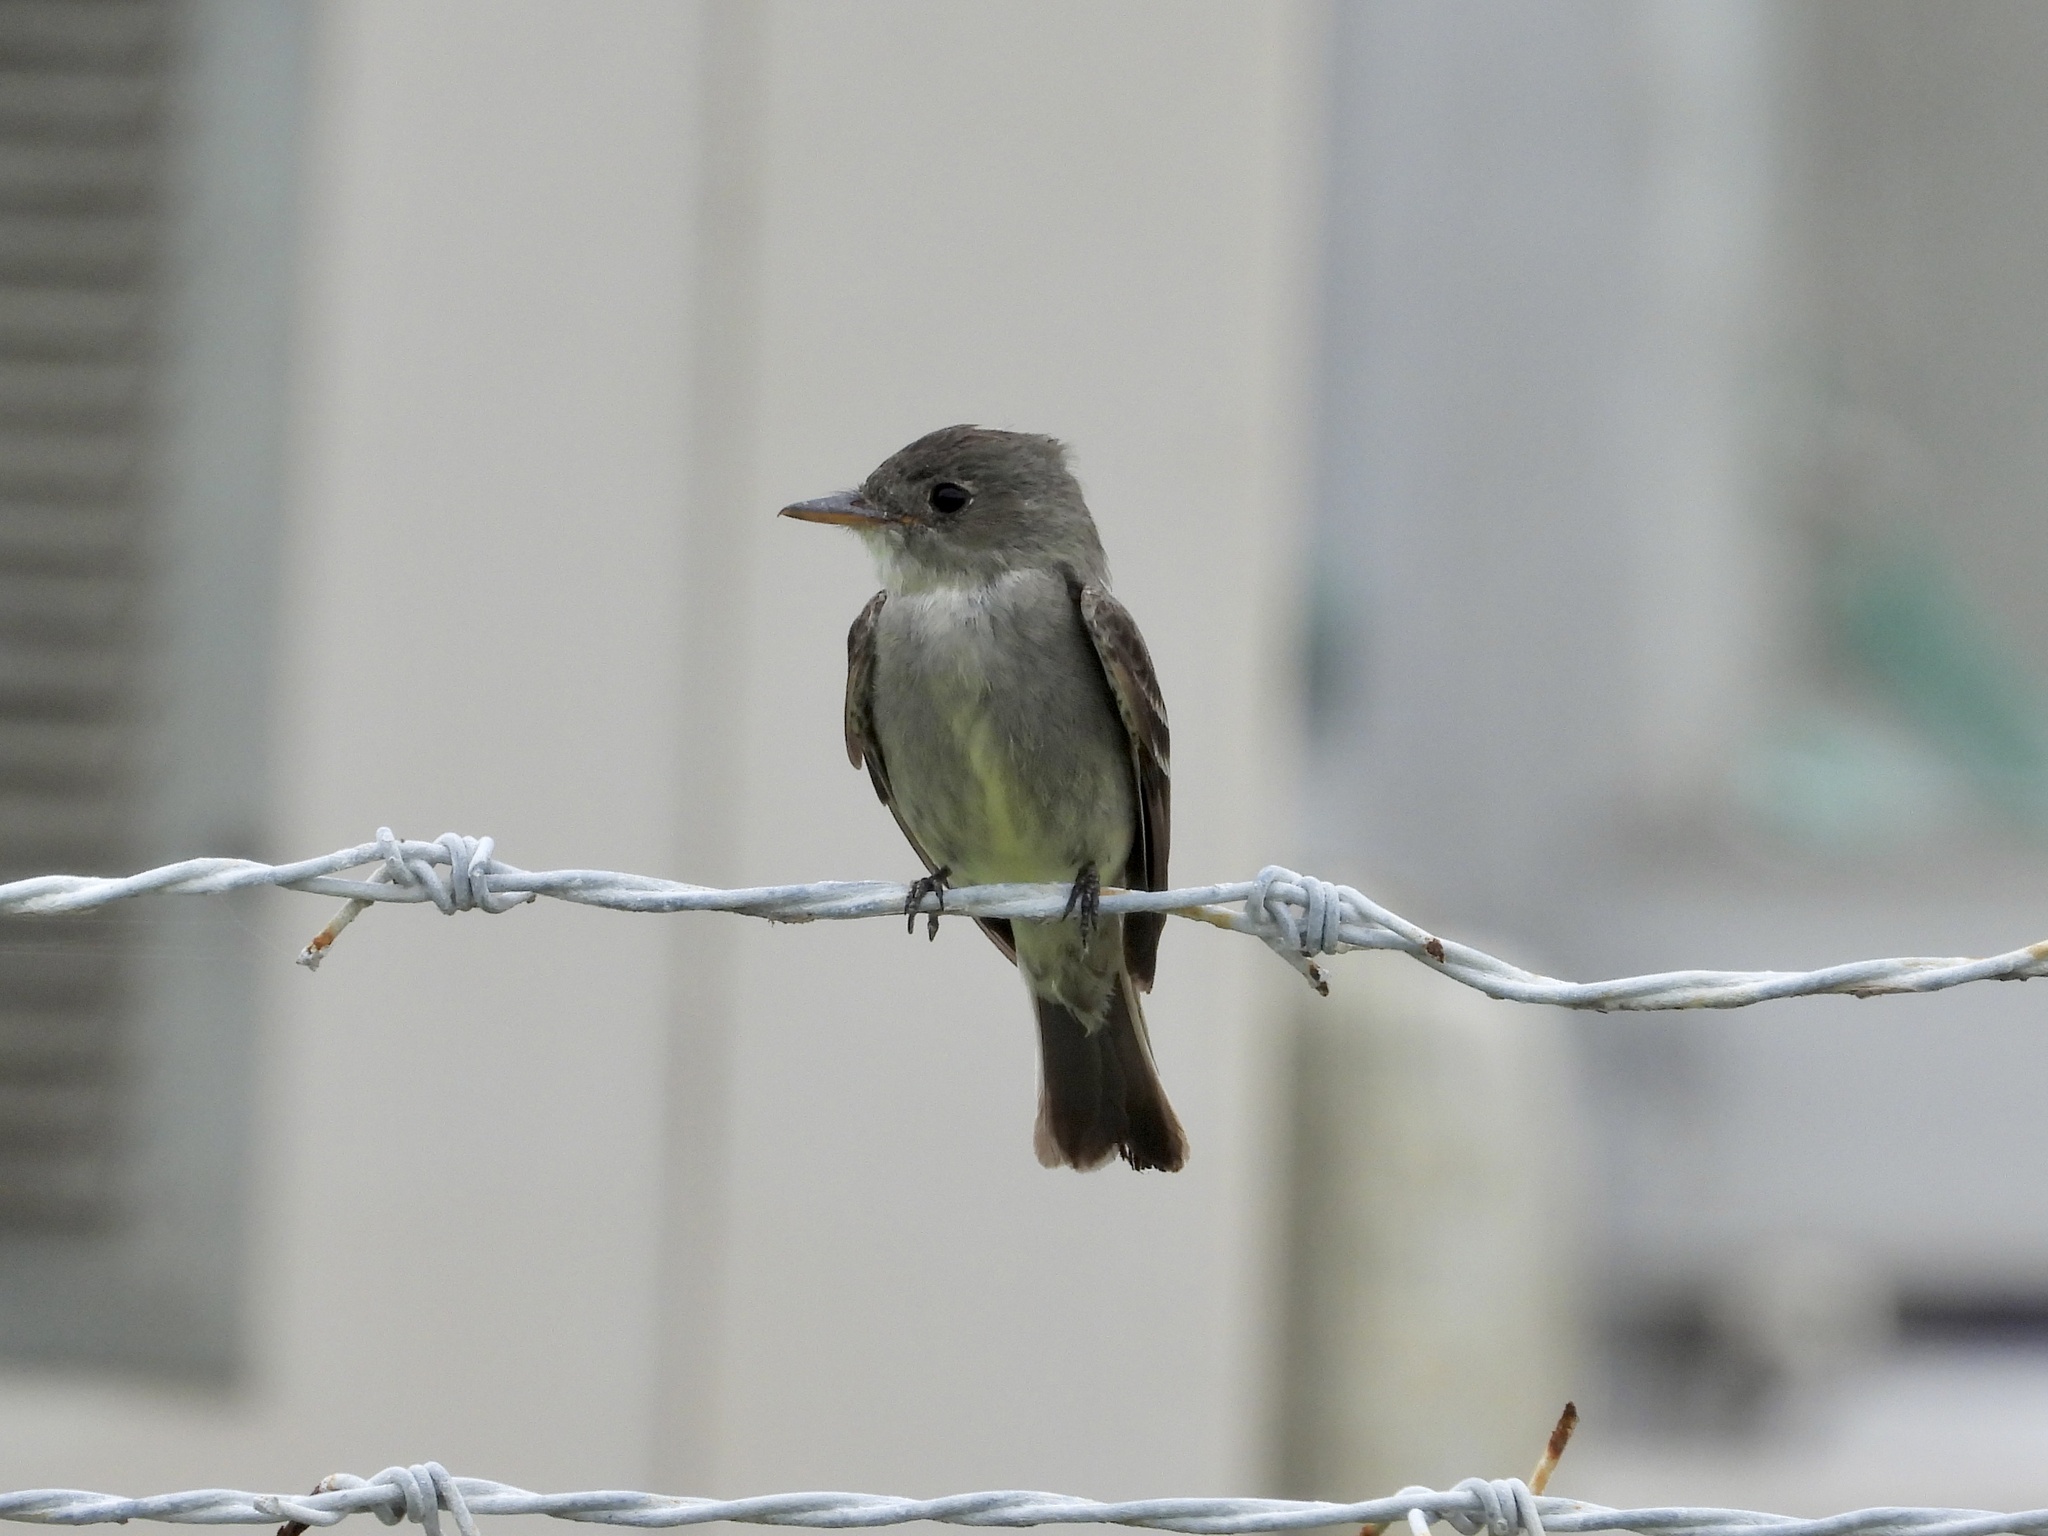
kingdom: Animalia
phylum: Chordata
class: Aves
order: Passeriformes
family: Tyrannidae
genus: Contopus
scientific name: Contopus virens
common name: Eastern wood-pewee
